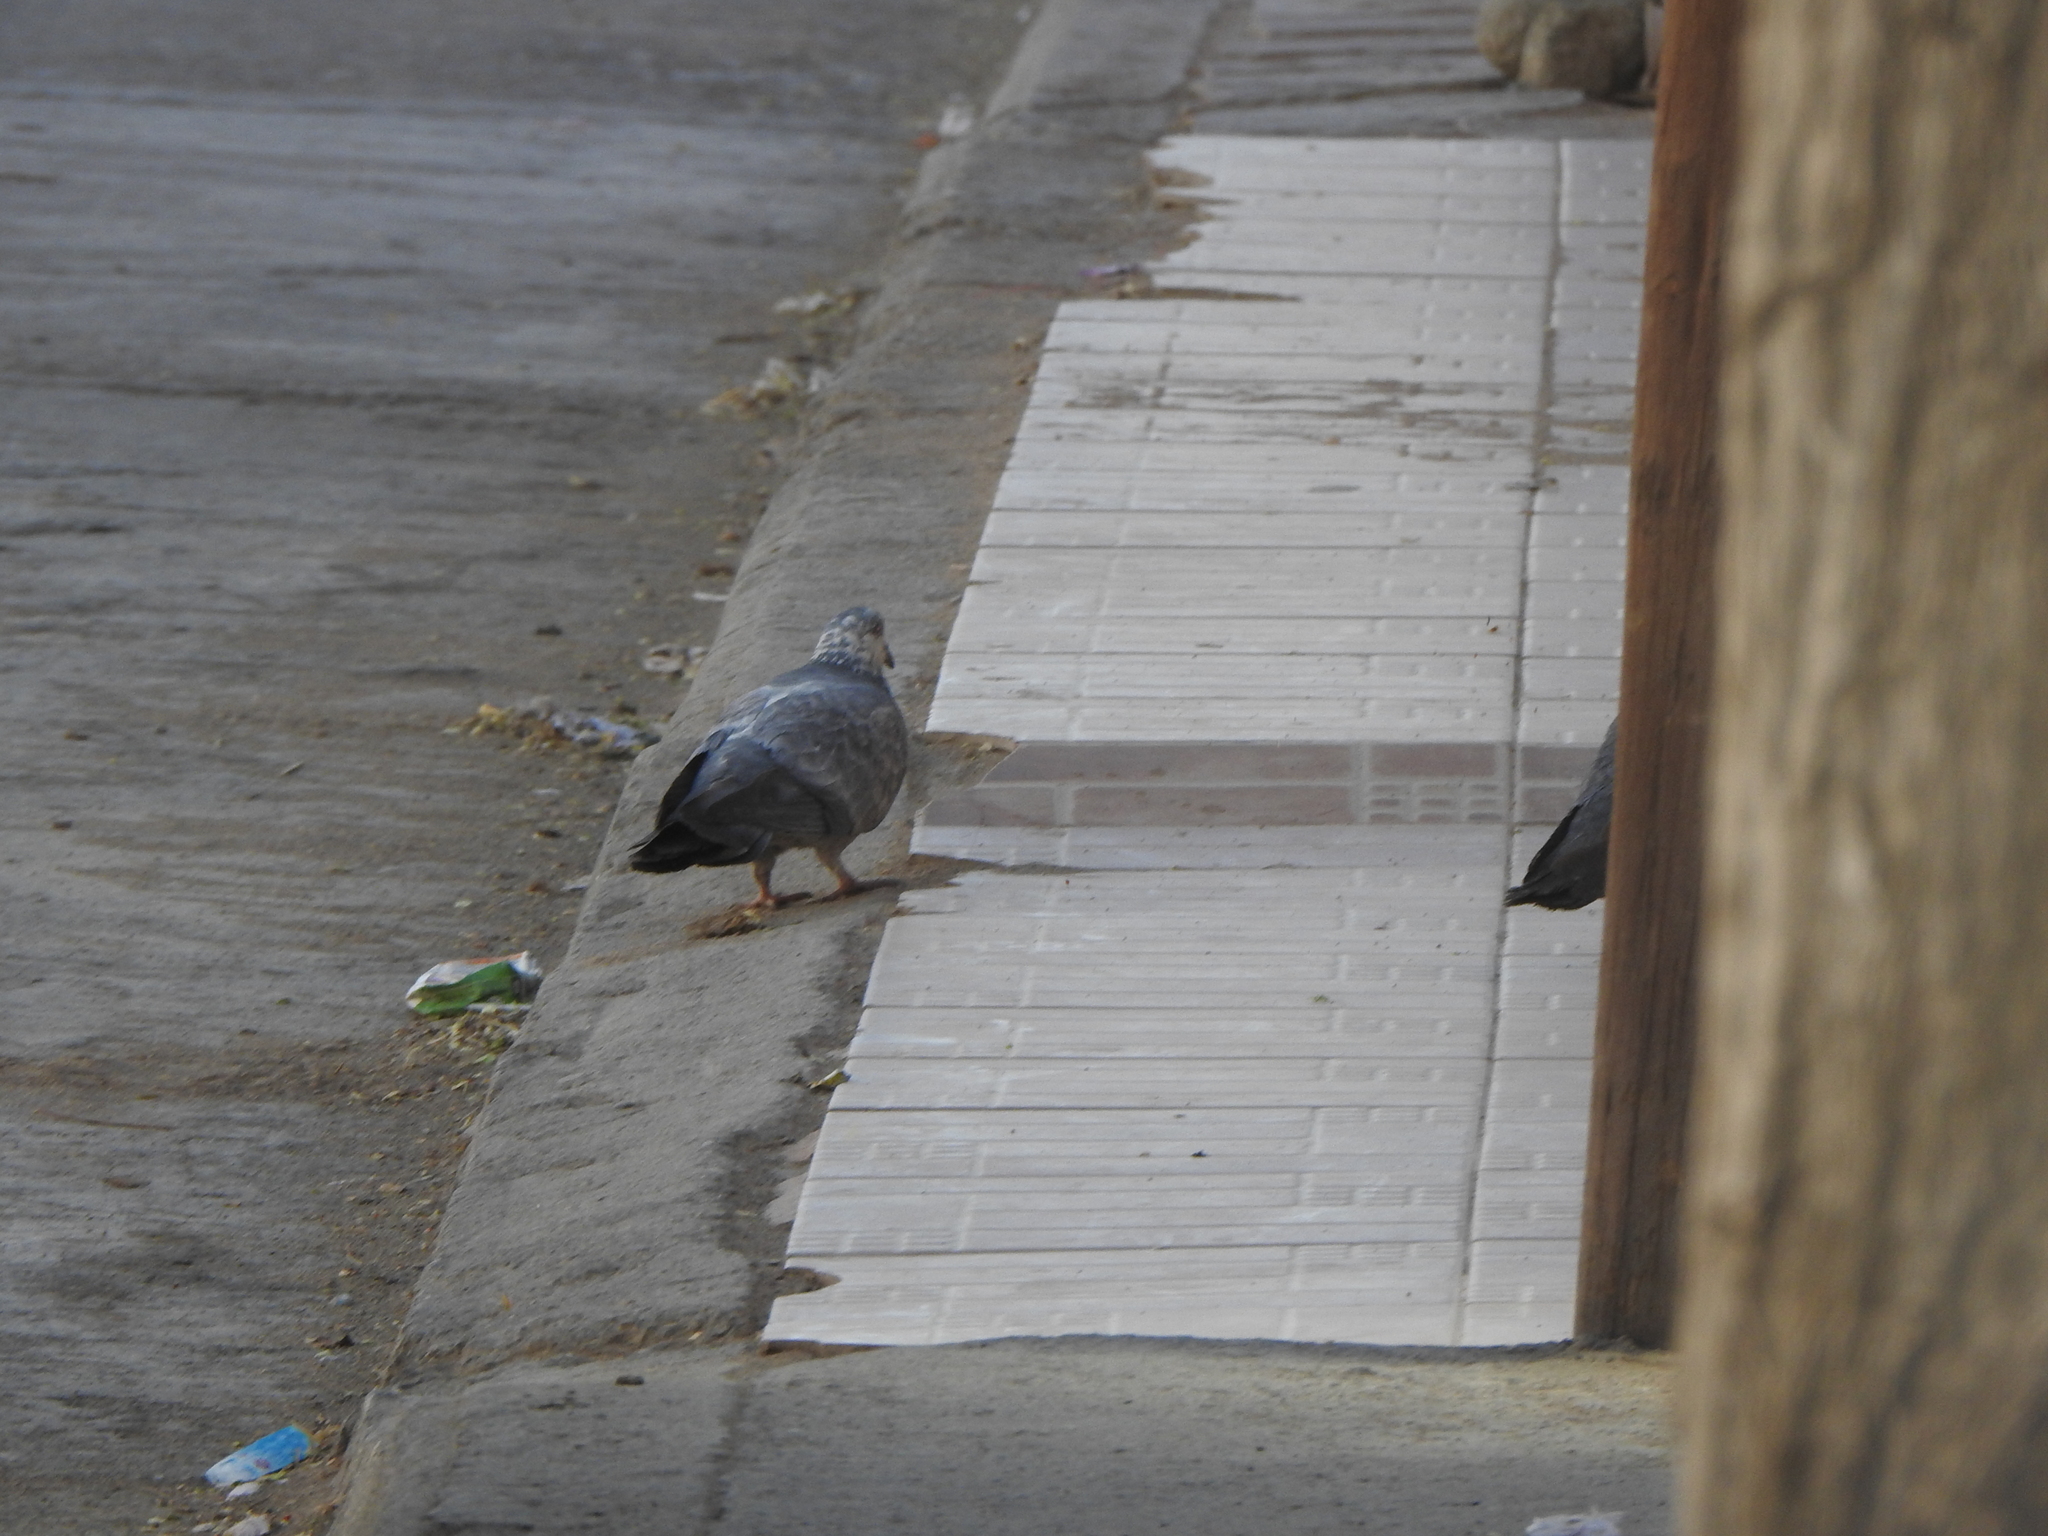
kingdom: Animalia
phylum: Chordata
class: Aves
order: Columbiformes
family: Columbidae
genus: Columba
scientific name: Columba livia
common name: Rock pigeon
